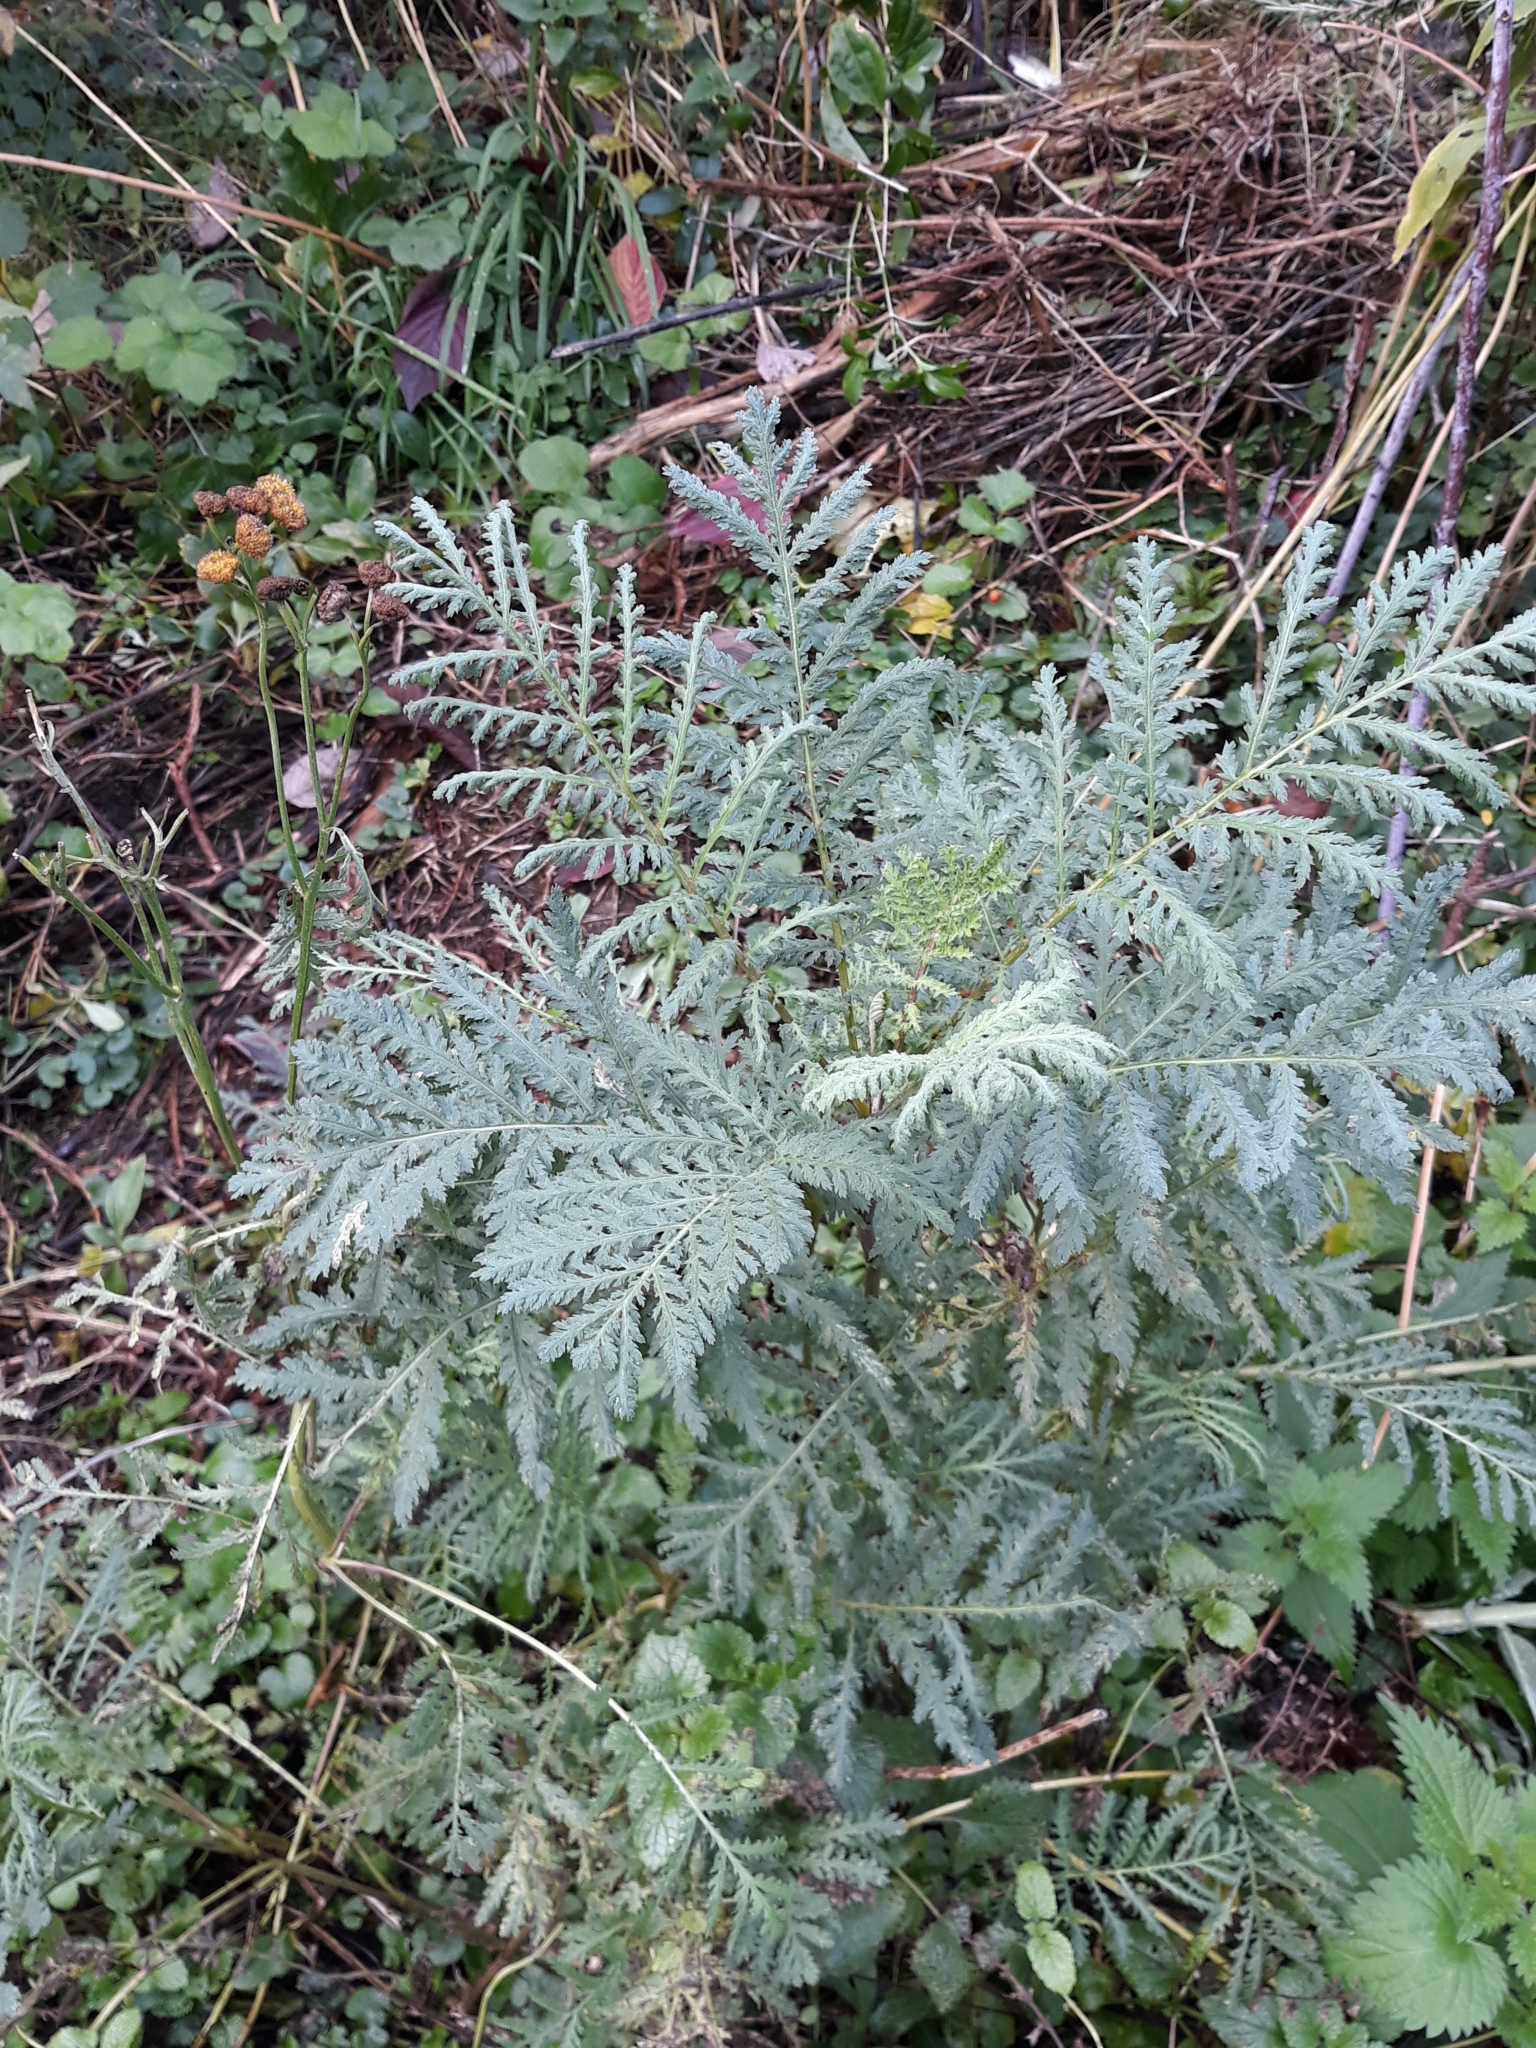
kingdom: Plantae
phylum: Tracheophyta
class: Magnoliopsida
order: Asterales
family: Asteraceae
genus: Tanacetum
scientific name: Tanacetum vulgare
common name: Common tansy
